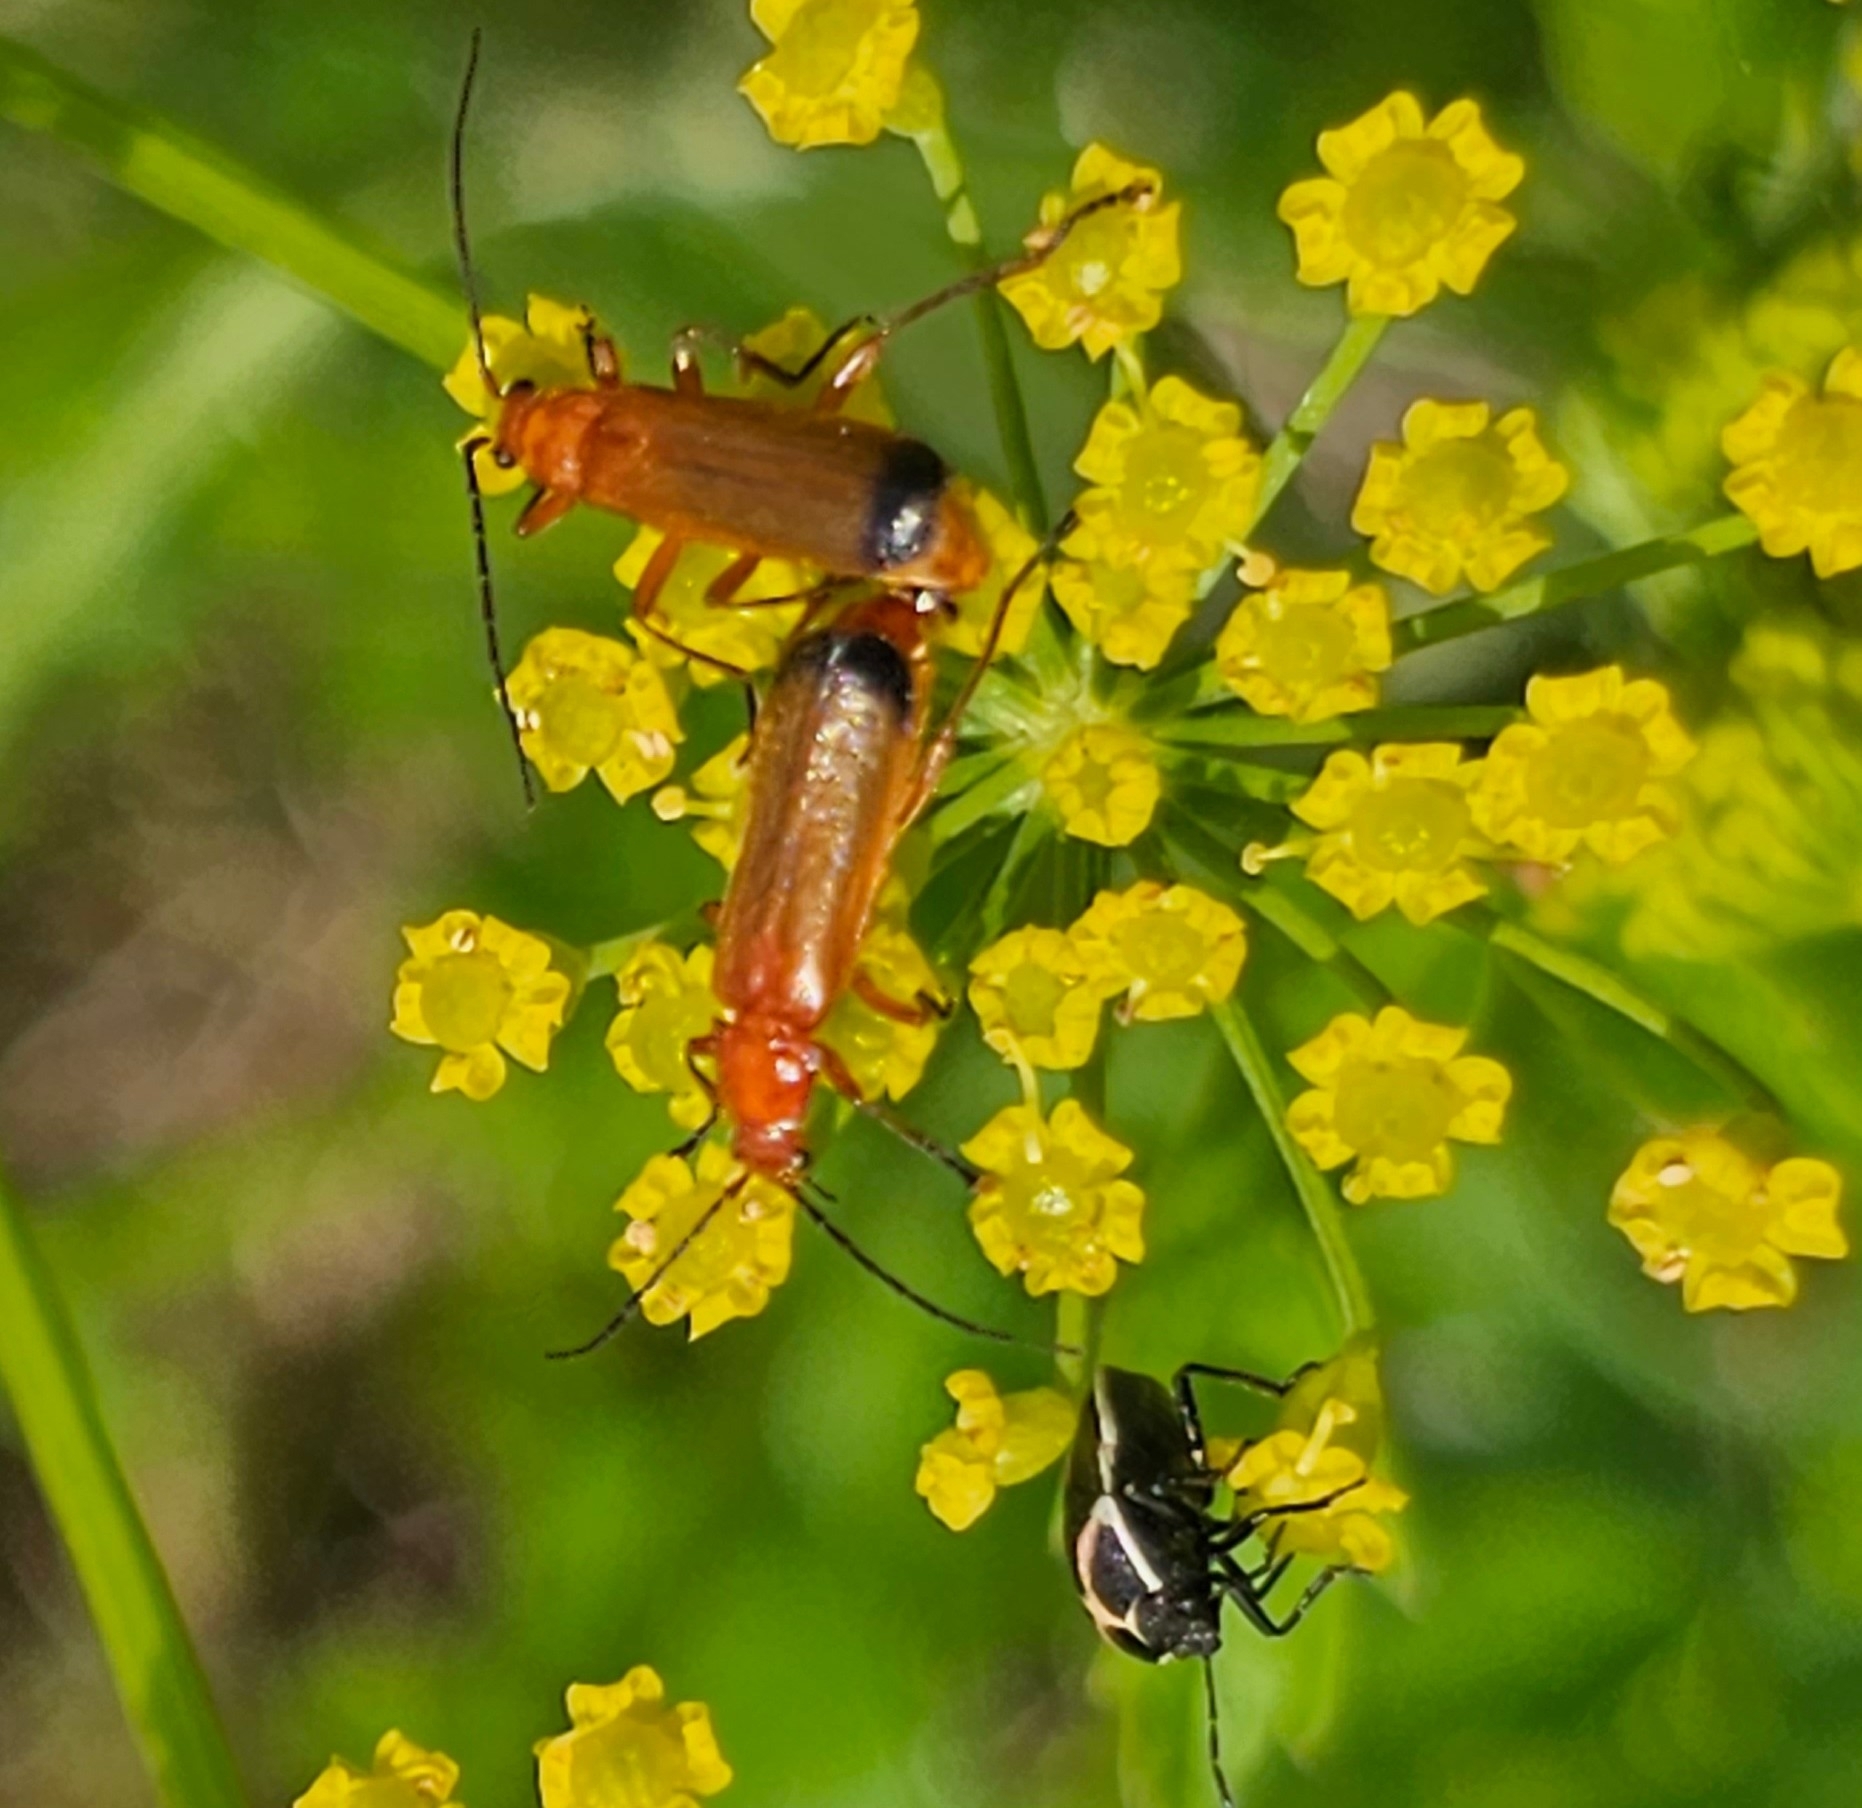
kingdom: Animalia
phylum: Arthropoda
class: Insecta
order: Coleoptera
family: Cantharidae
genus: Rhagonycha
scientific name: Rhagonycha fulva
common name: Common red soldier beetle
